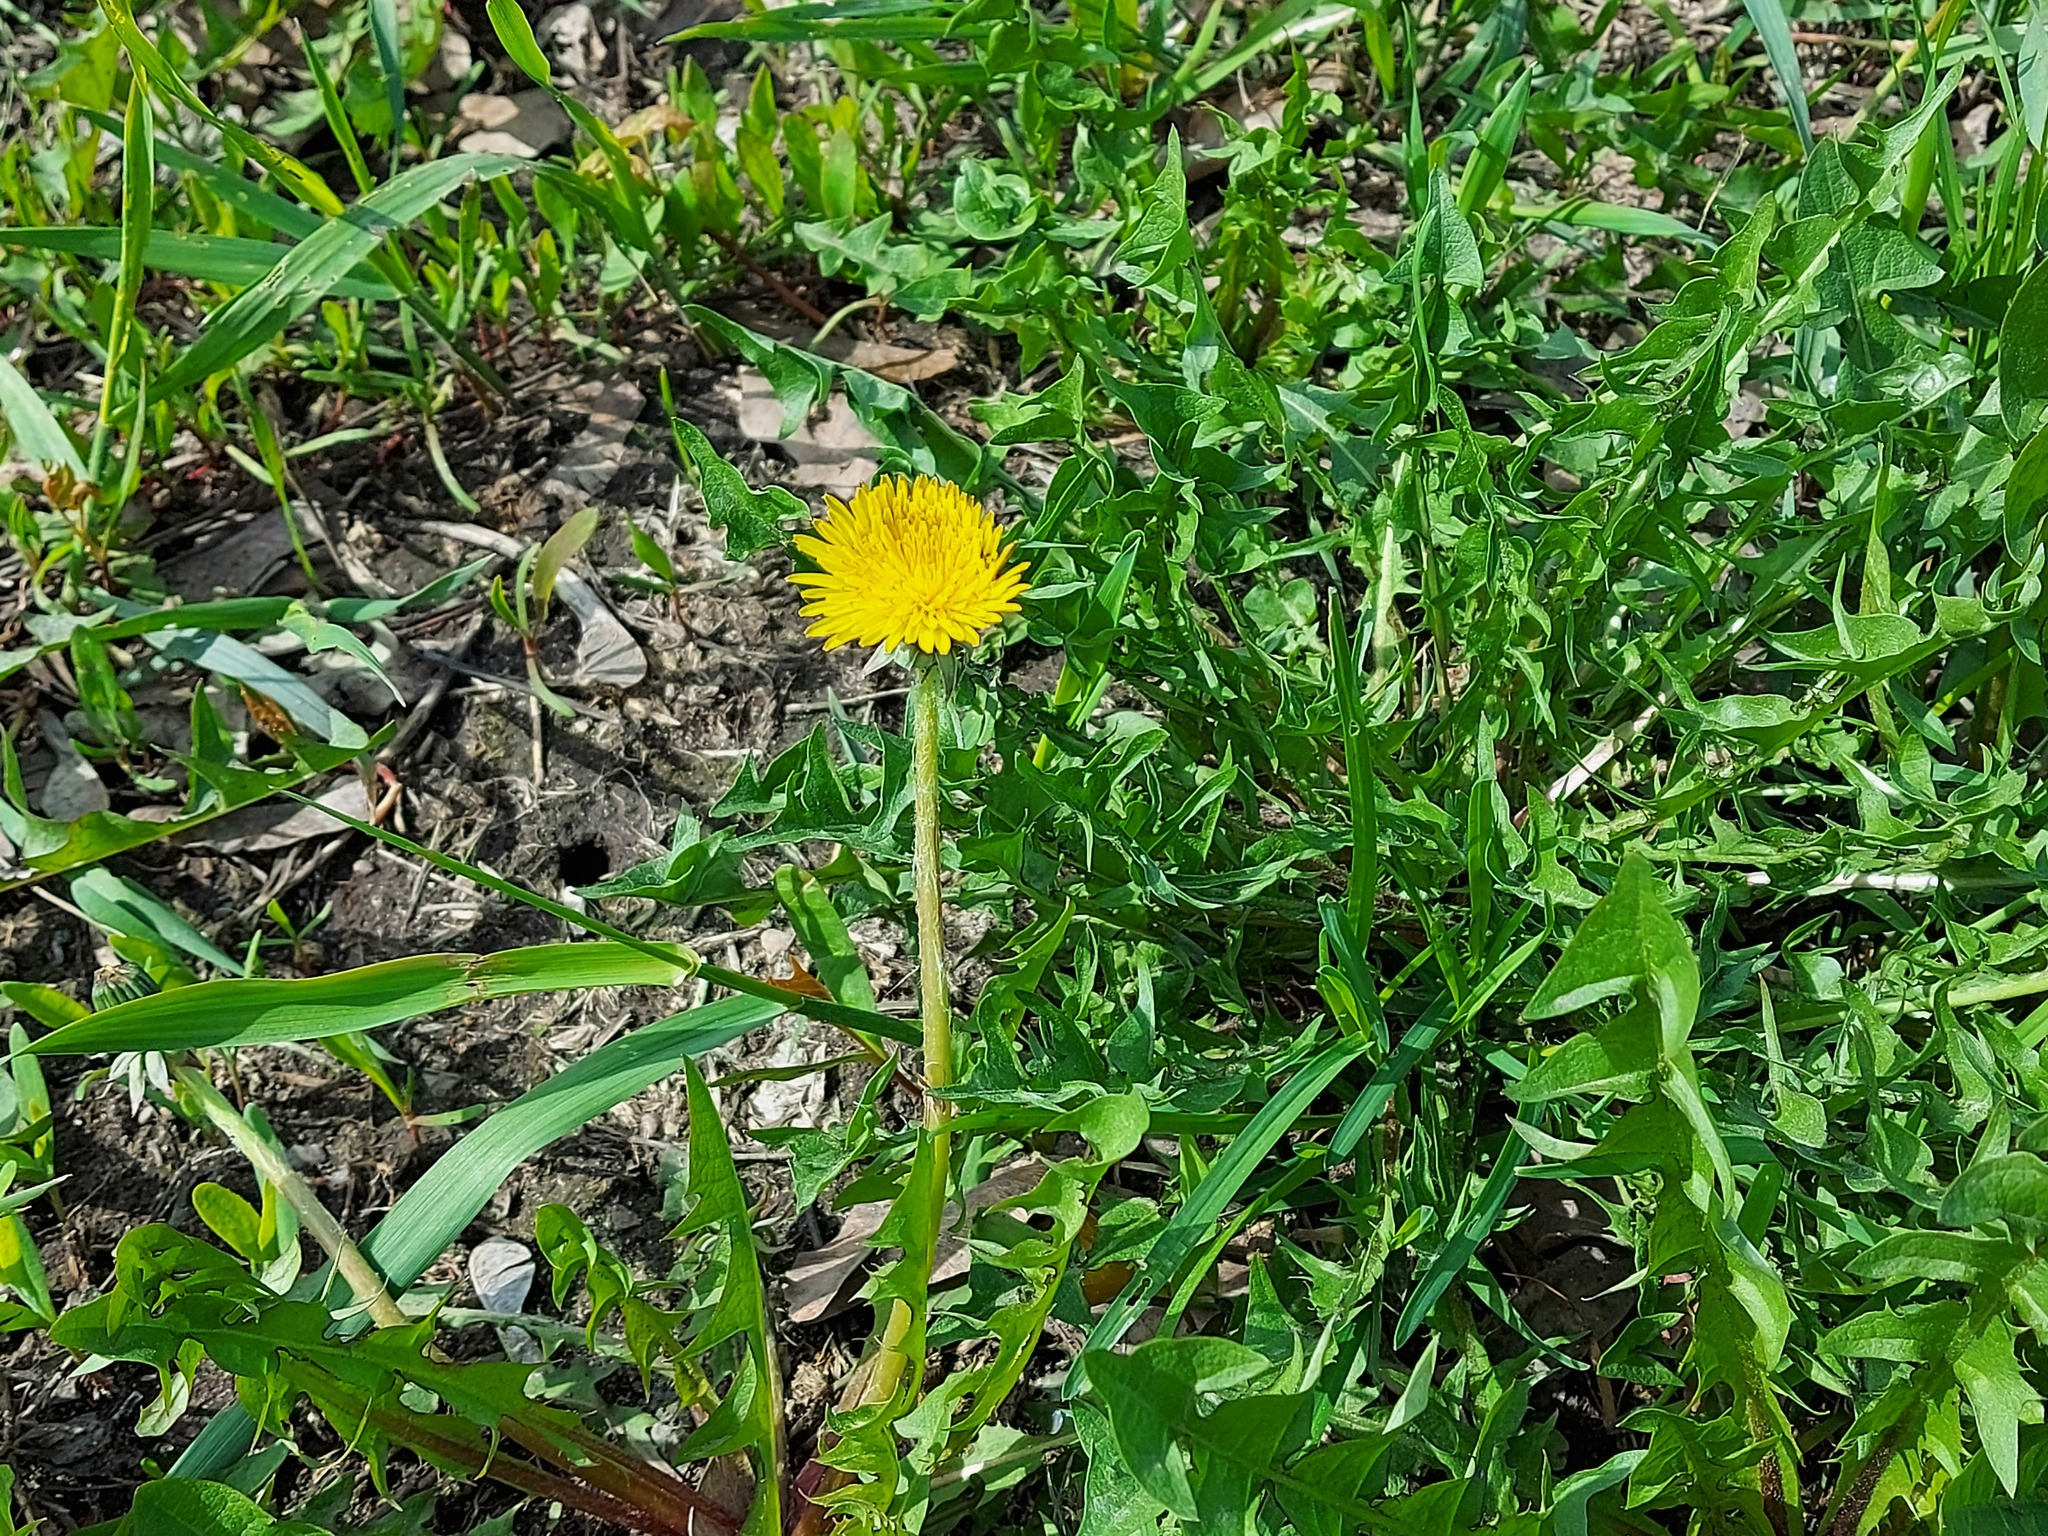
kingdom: Plantae
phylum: Tracheophyta
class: Magnoliopsida
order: Asterales
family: Asteraceae
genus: Taraxacum
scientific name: Taraxacum officinale
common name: Common dandelion
